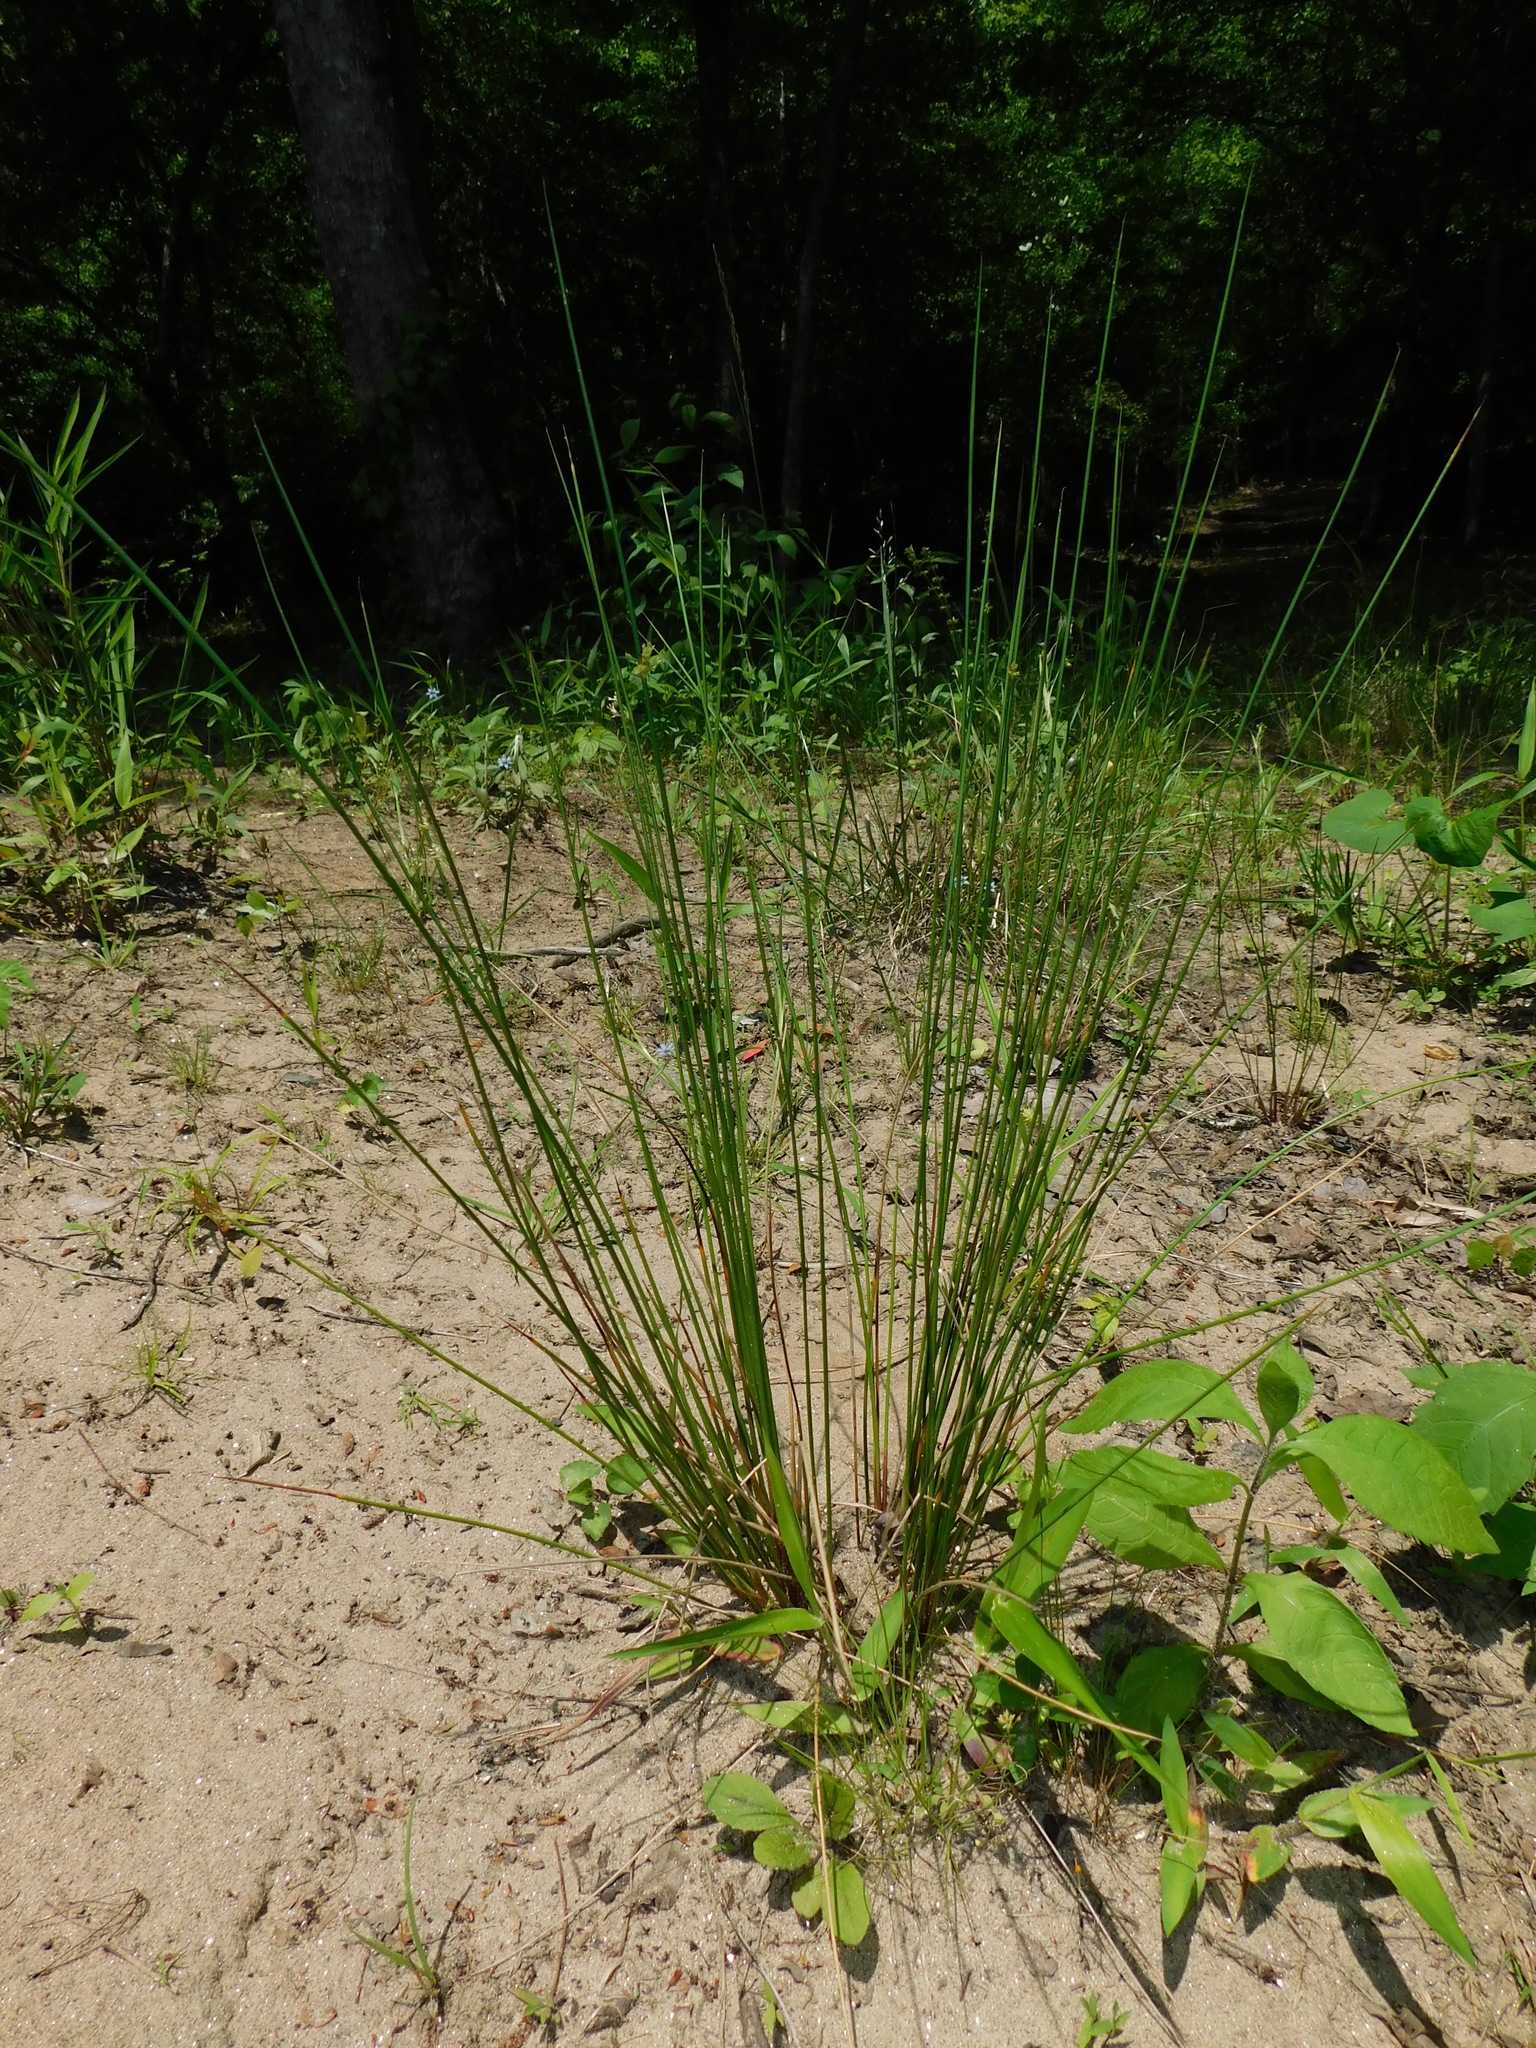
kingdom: Plantae
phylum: Tracheophyta
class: Liliopsida
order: Poales
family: Juncaceae
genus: Juncus
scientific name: Juncus effusus
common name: Soft rush
